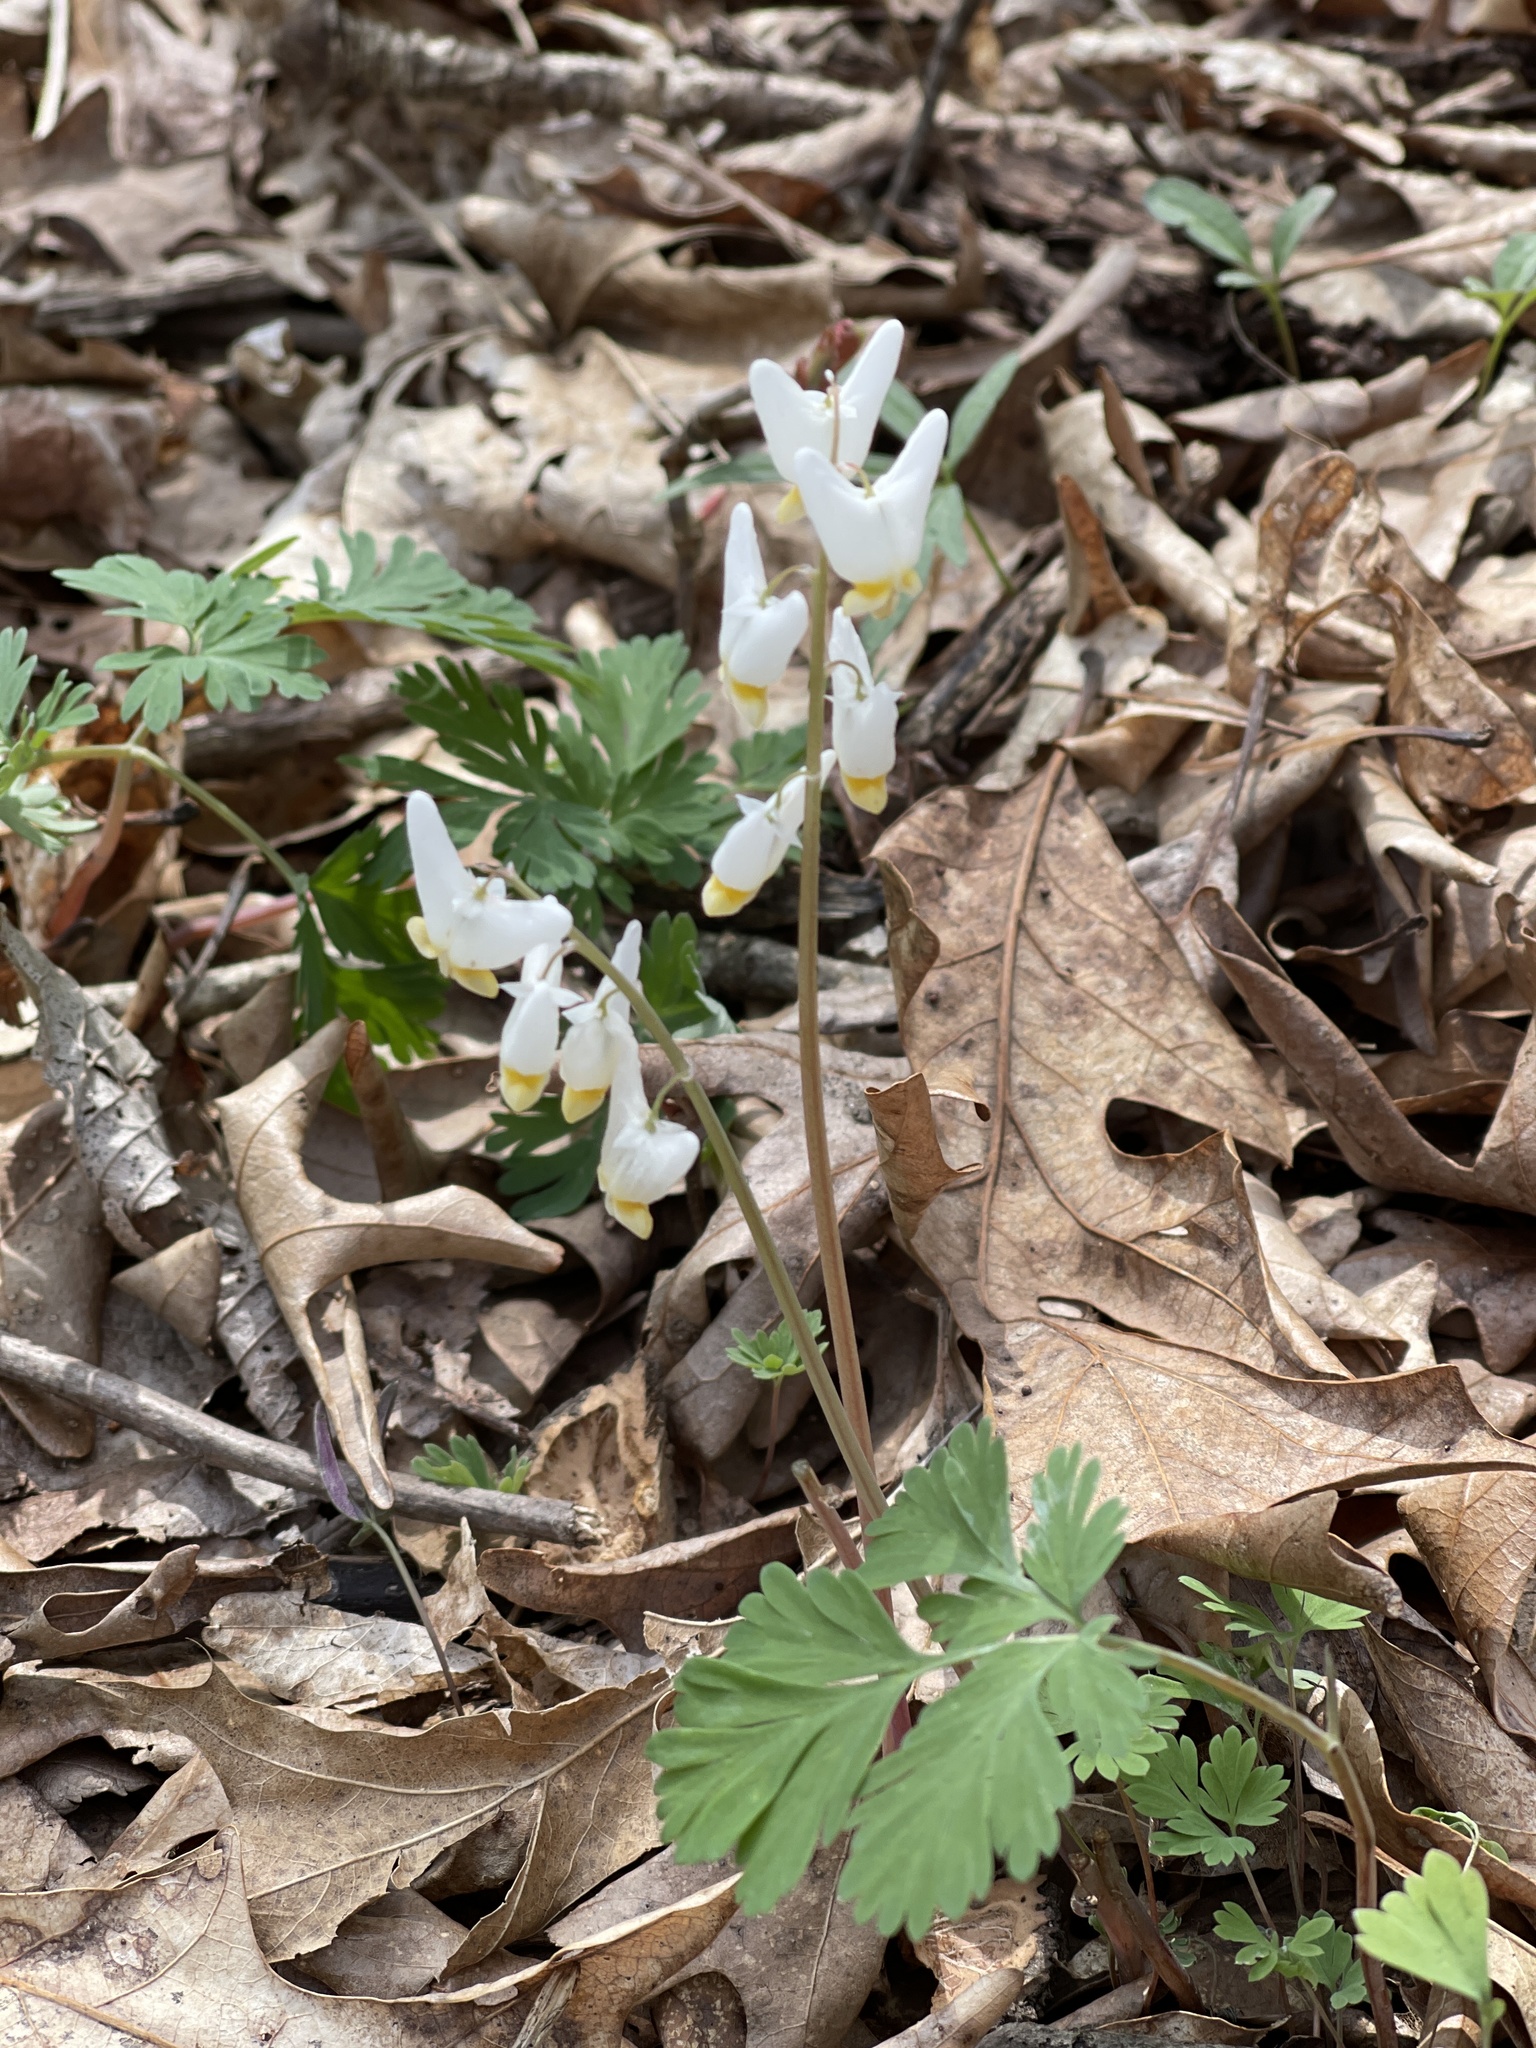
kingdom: Plantae
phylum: Tracheophyta
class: Magnoliopsida
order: Ranunculales
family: Papaveraceae
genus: Dicentra
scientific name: Dicentra cucullaria
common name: Dutchman's breeches
